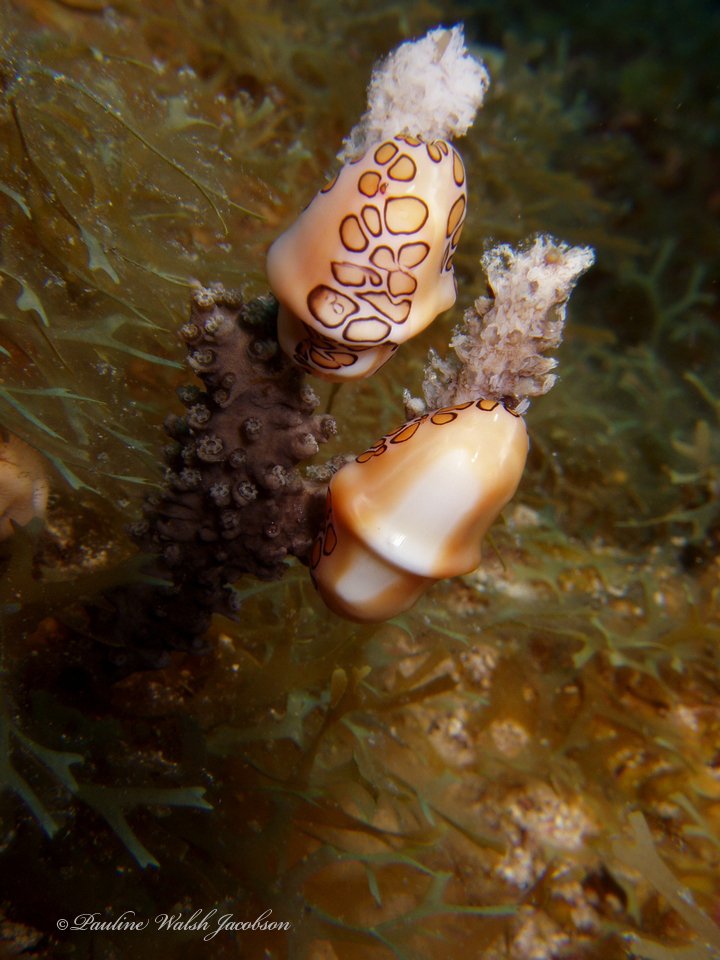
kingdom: Animalia
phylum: Mollusca
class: Gastropoda
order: Littorinimorpha
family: Ovulidae
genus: Cyphoma
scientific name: Cyphoma gibbosum
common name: Flamingo tongue
